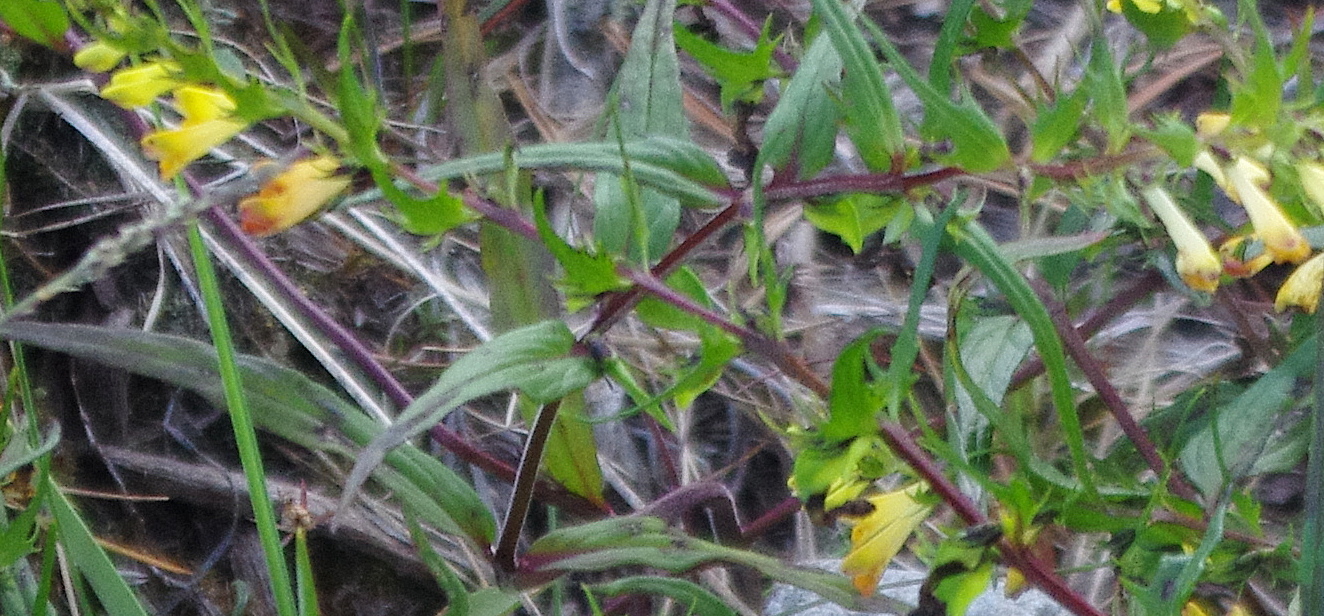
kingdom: Plantae
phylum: Tracheophyta
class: Magnoliopsida
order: Lamiales
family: Orobanchaceae
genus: Melampyrum
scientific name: Melampyrum pratense
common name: Common cow-wheat
